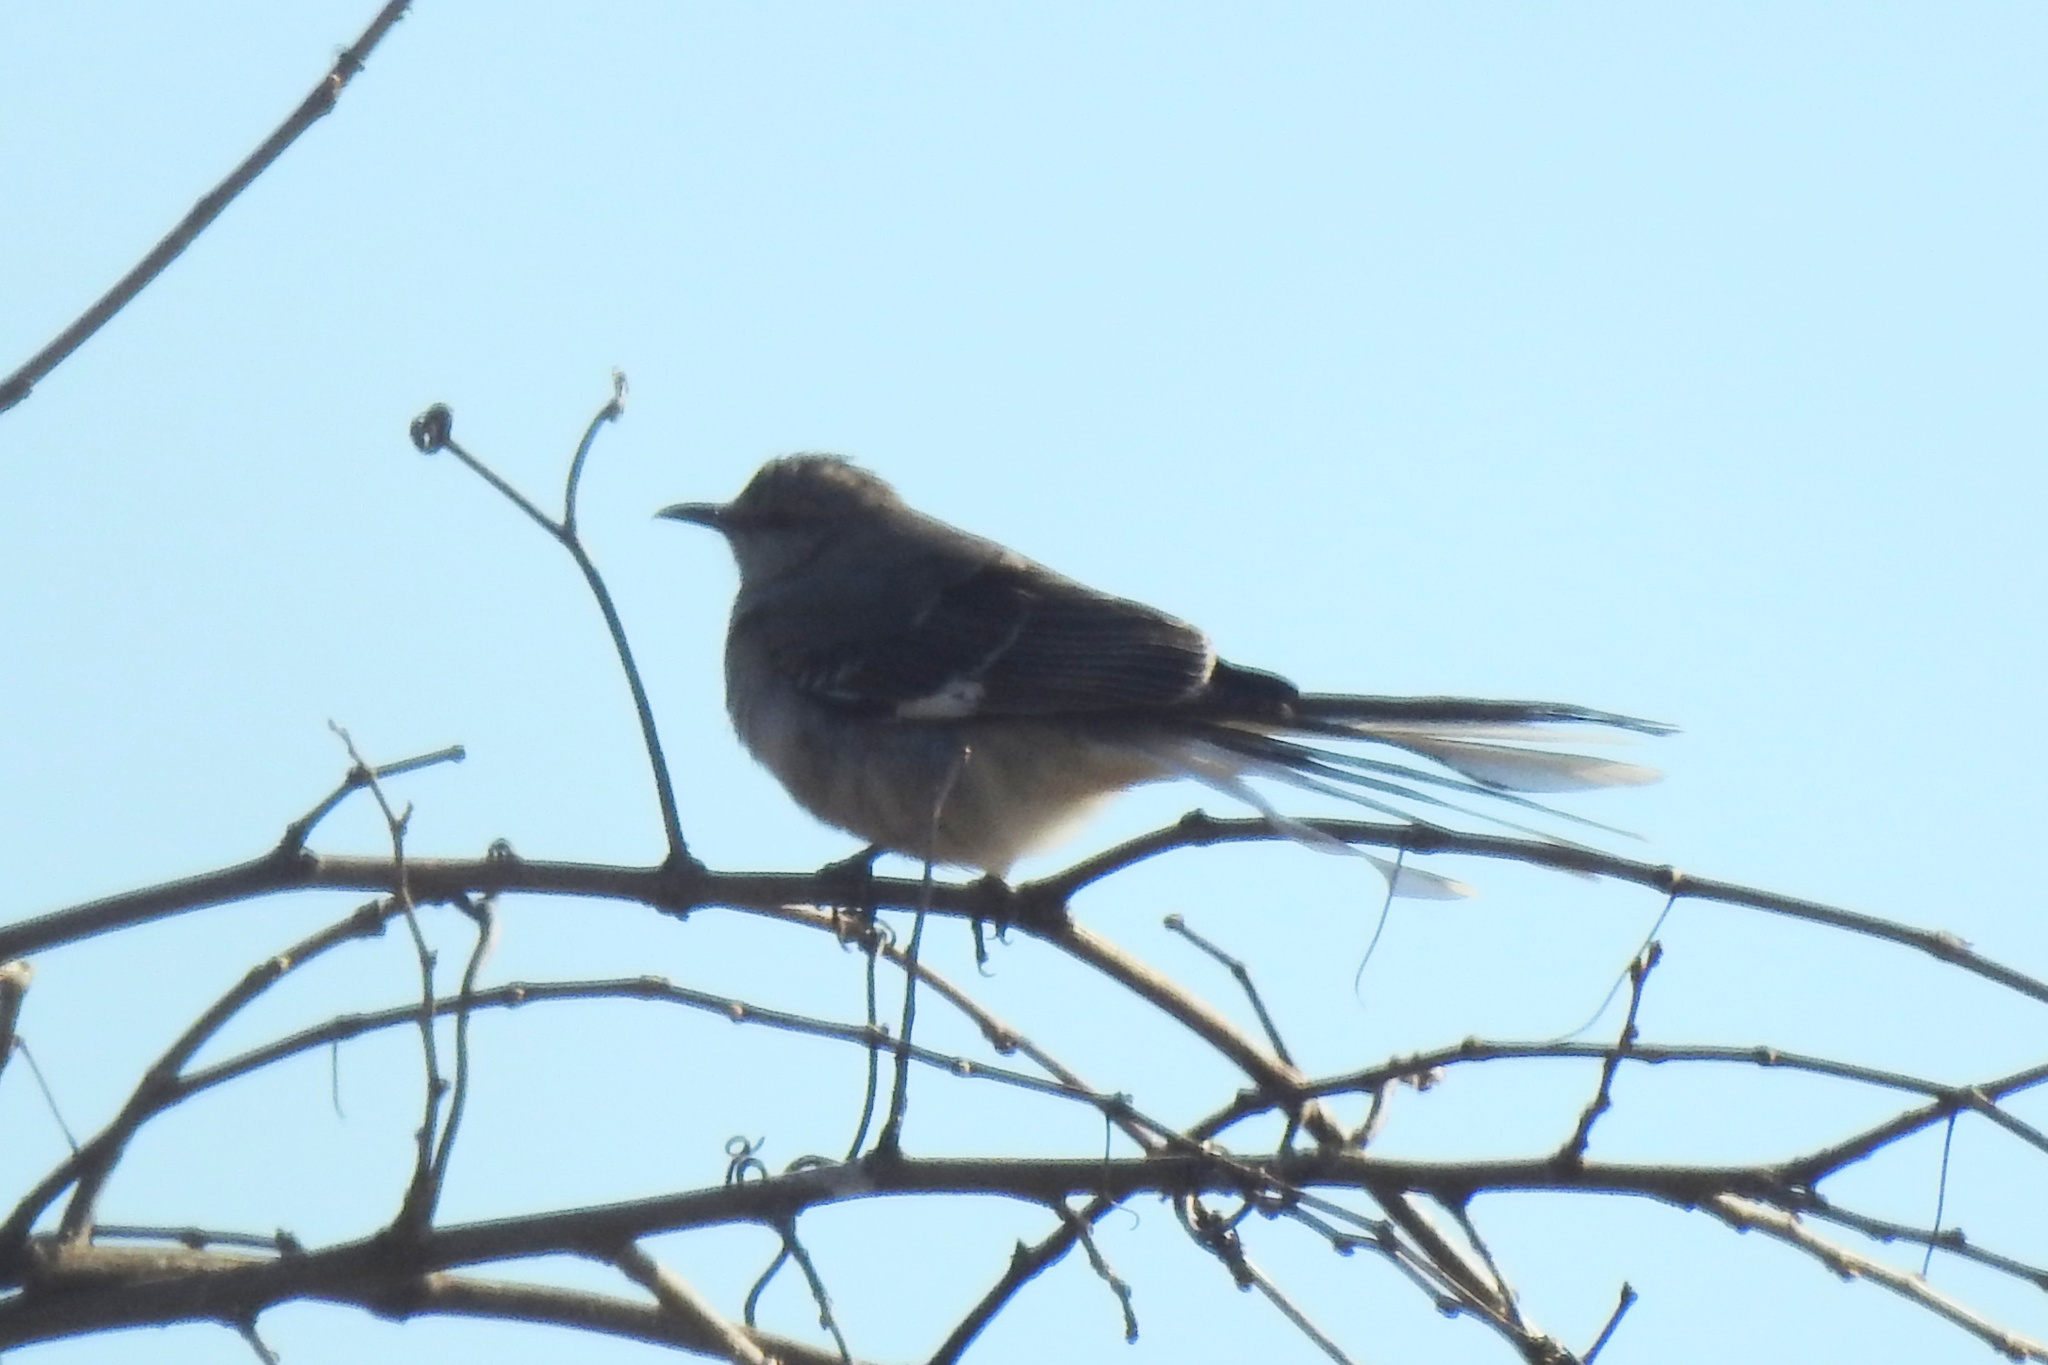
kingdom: Animalia
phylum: Chordata
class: Aves
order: Passeriformes
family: Mimidae
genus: Mimus
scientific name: Mimus polyglottos
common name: Northern mockingbird
